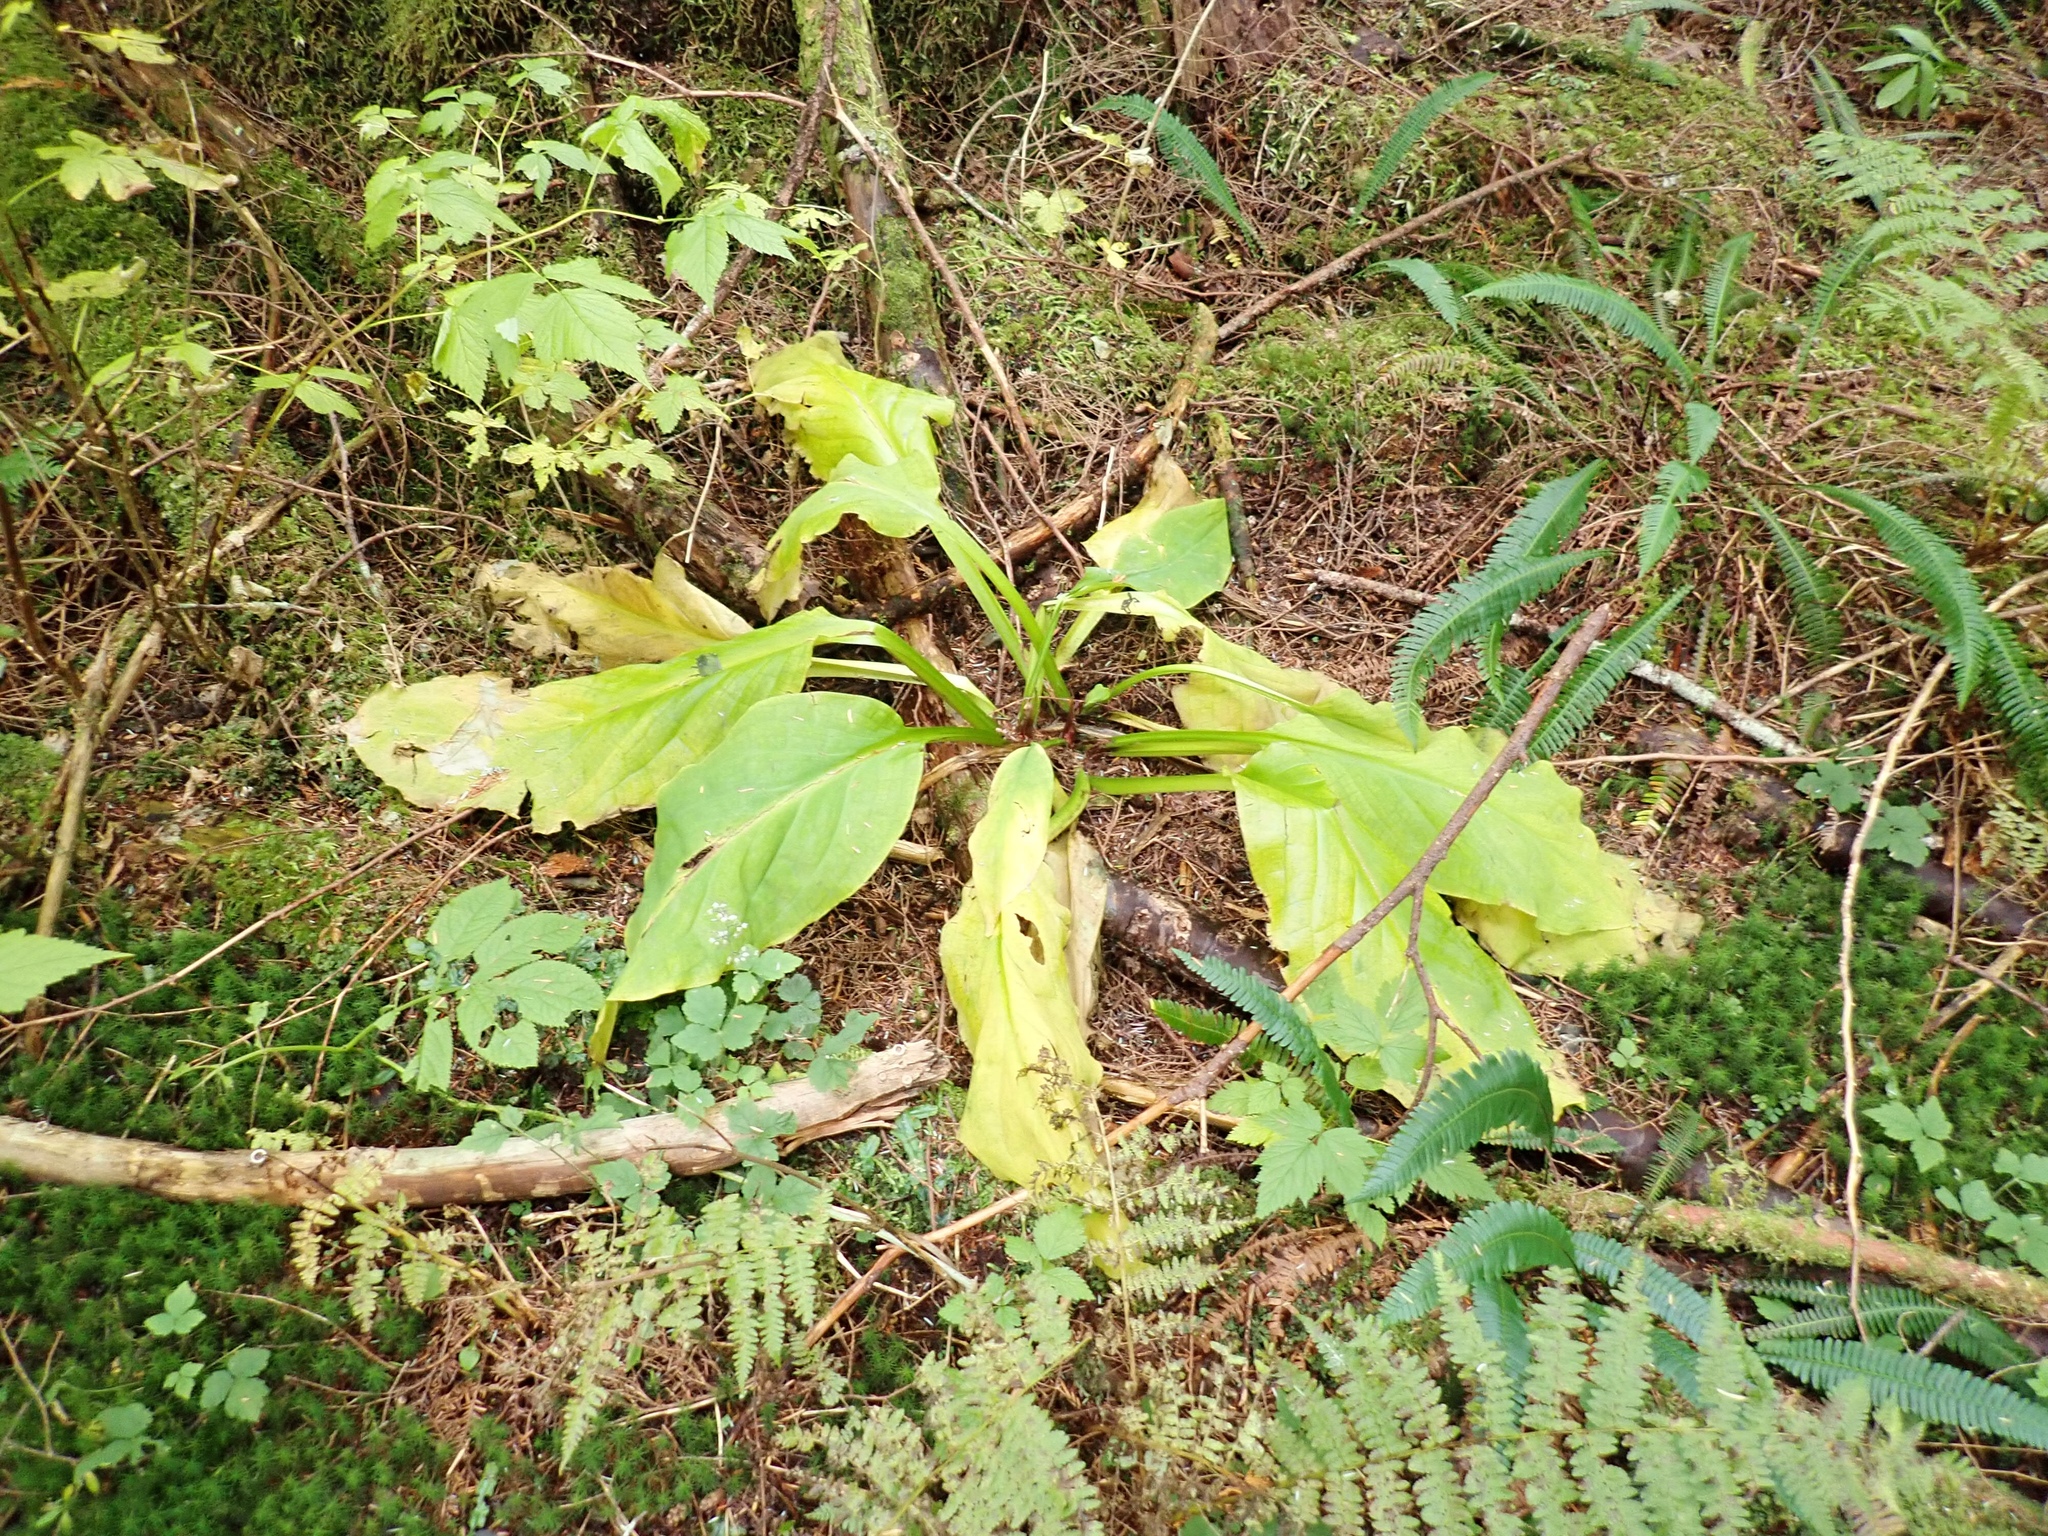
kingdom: Plantae
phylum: Tracheophyta
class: Liliopsida
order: Alismatales
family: Araceae
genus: Lysichiton
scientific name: Lysichiton americanus
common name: American skunk cabbage
